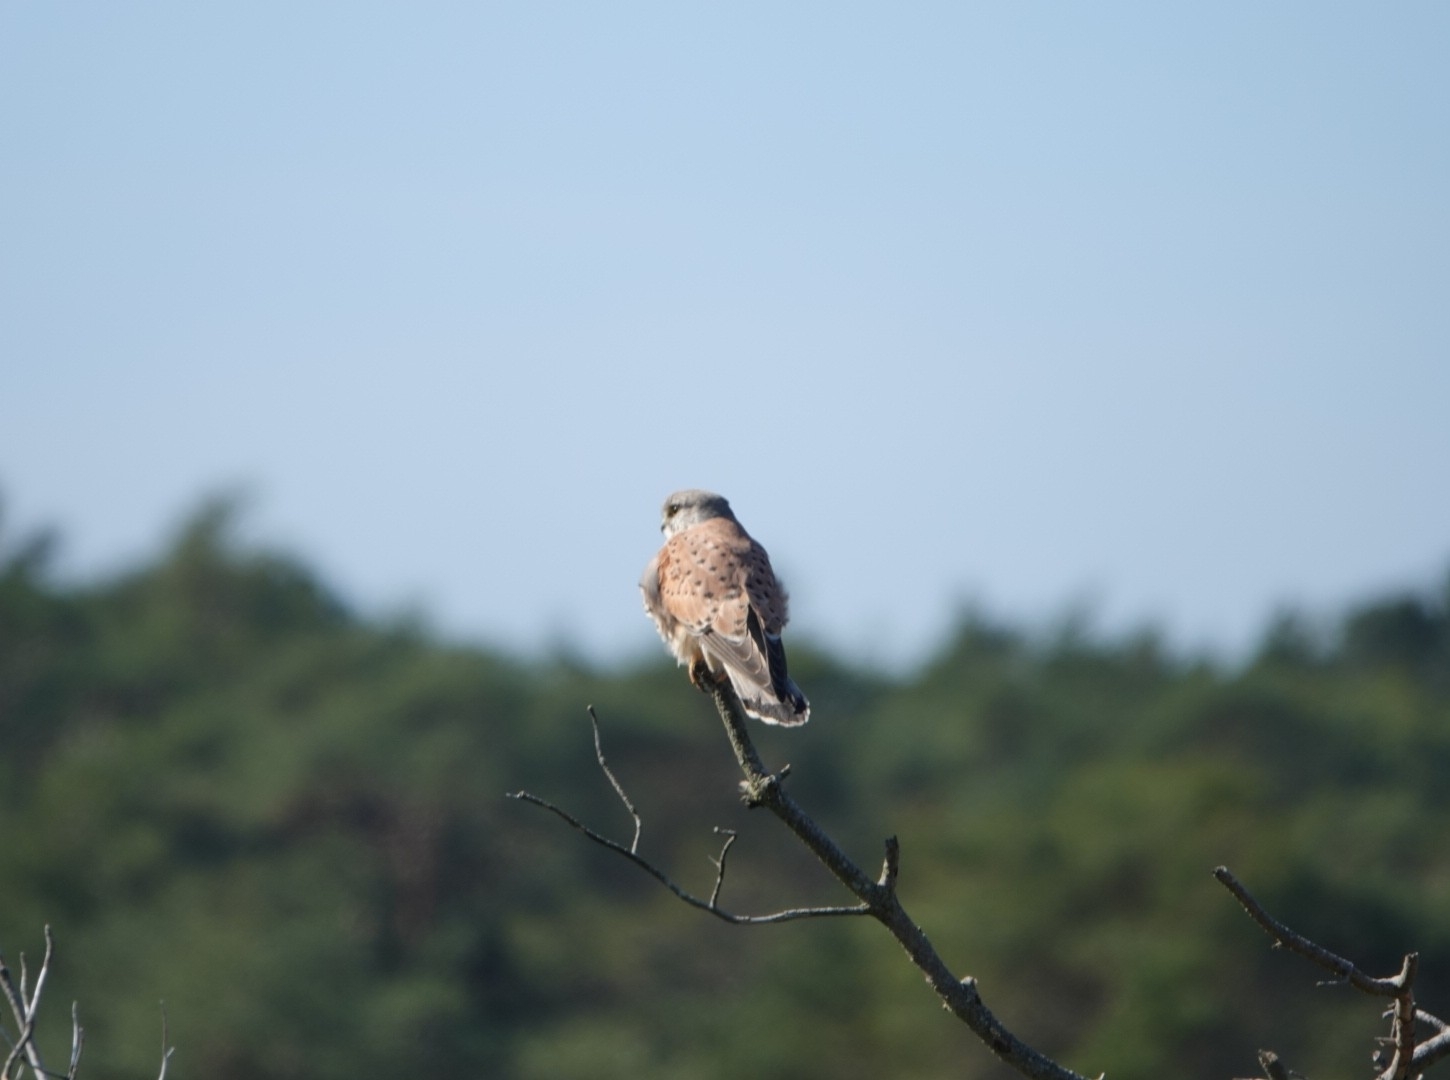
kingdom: Animalia
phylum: Chordata
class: Aves
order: Falconiformes
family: Falconidae
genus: Falco
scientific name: Falco tinnunculus
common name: Common kestrel
